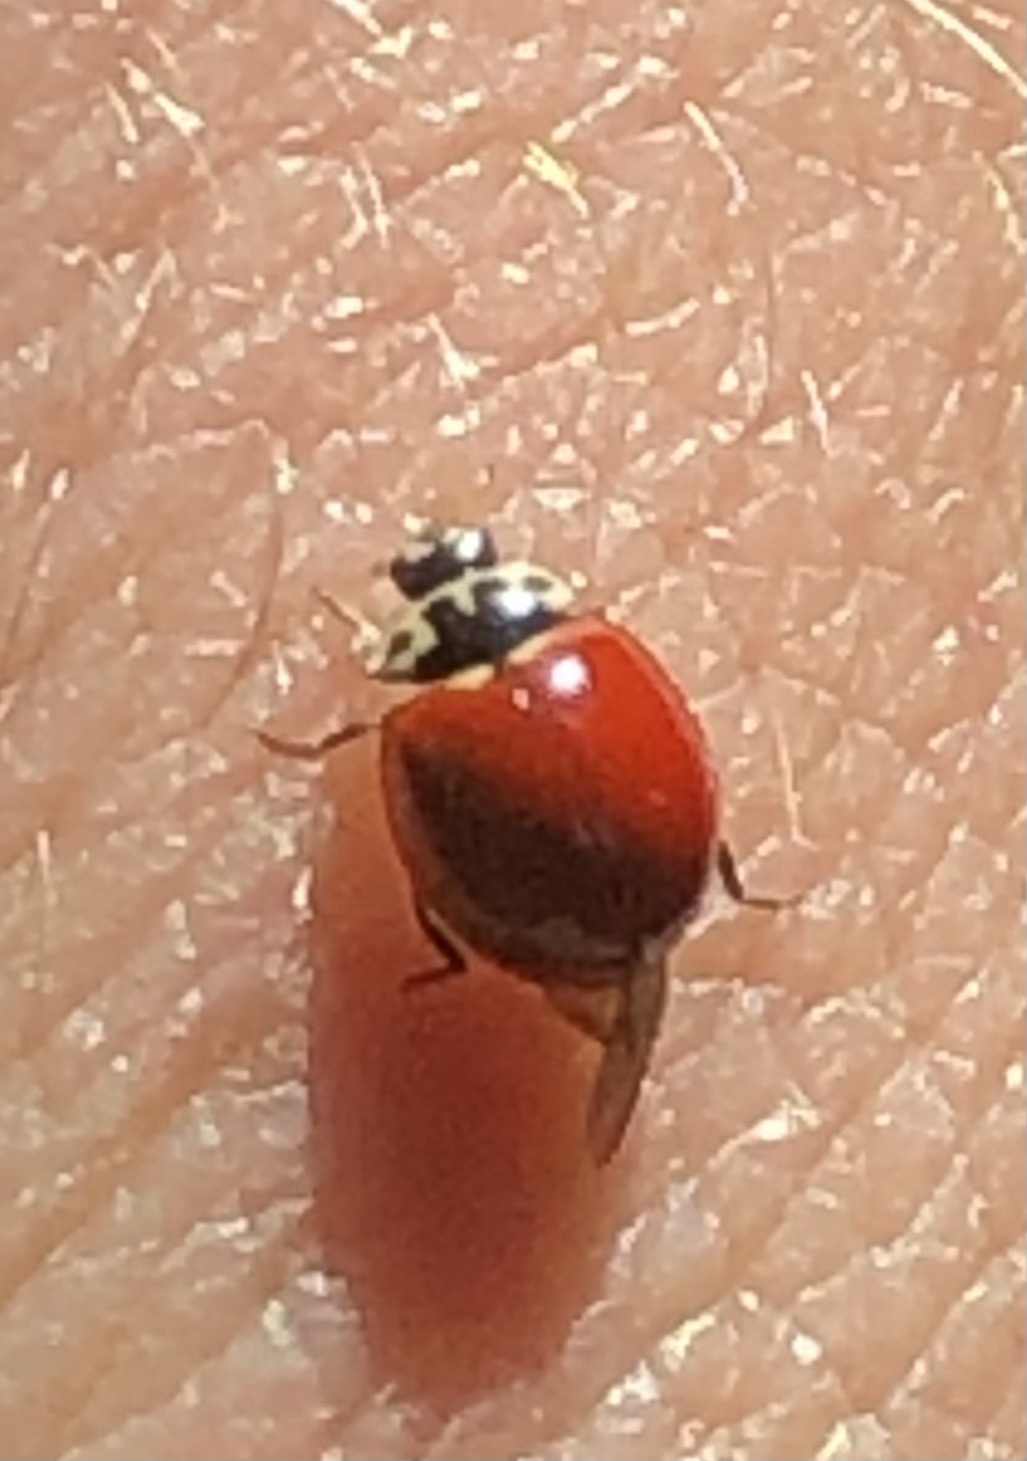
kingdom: Animalia
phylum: Arthropoda
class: Insecta
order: Coleoptera
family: Coccinellidae
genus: Cycloneda
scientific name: Cycloneda polita
